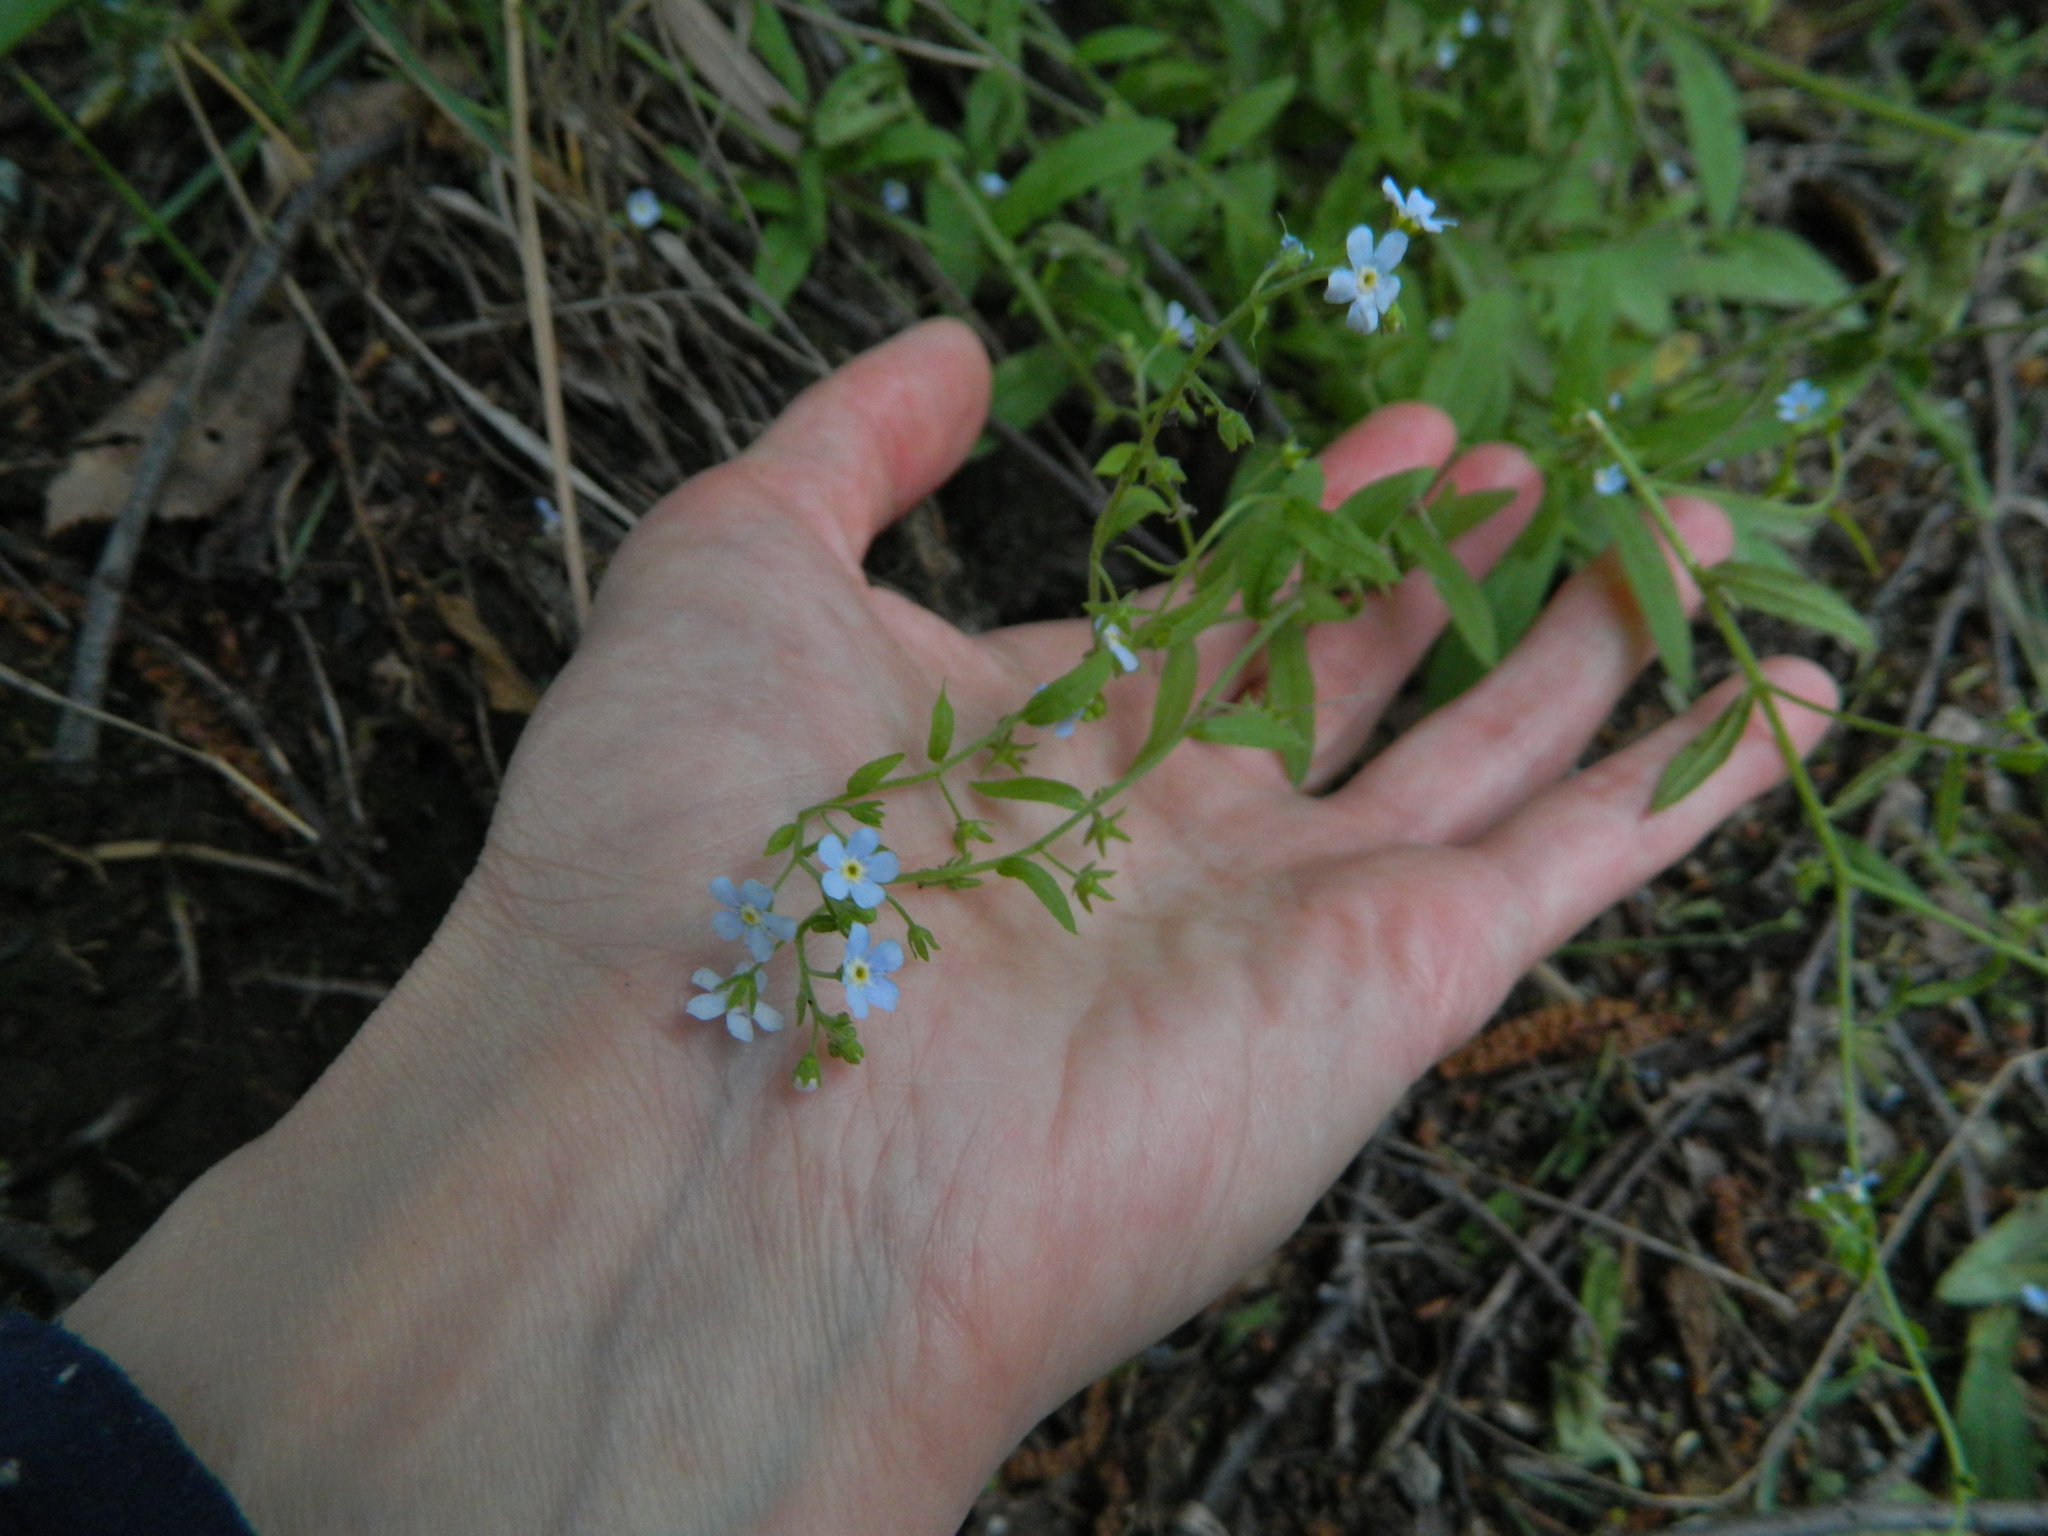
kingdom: Plantae
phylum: Tracheophyta
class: Magnoliopsida
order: Boraginales
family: Boraginaceae
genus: Hackelia
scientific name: Hackelia deflexa
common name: Nodding stickseed
